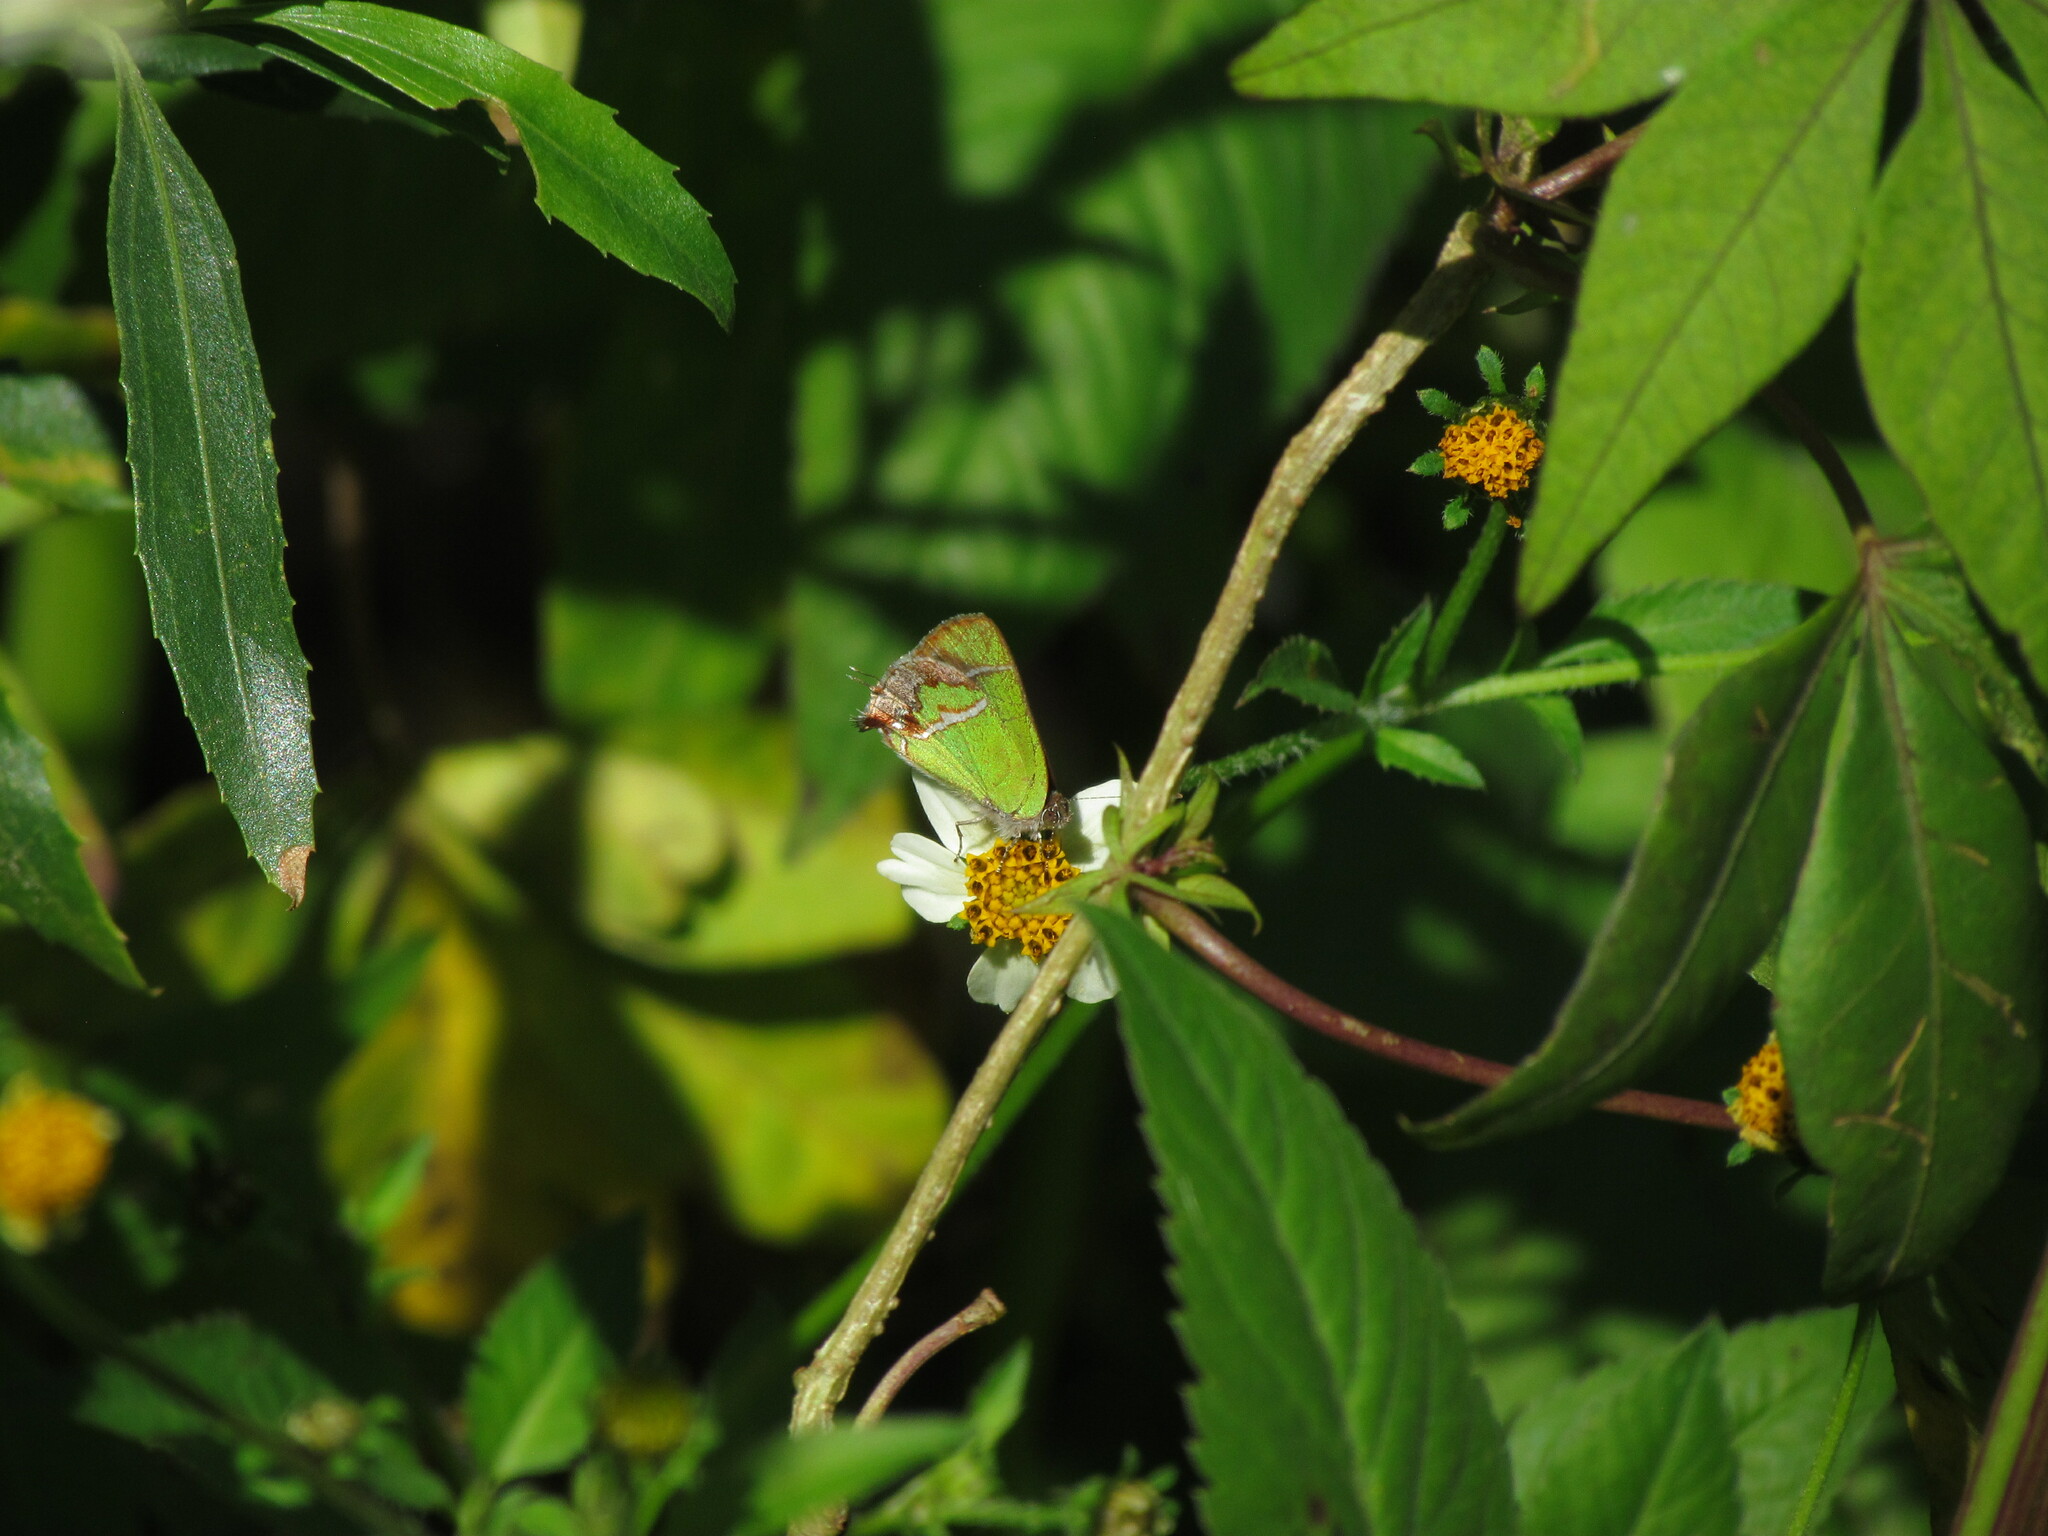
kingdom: Animalia
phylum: Arthropoda
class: Insecta
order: Lepidoptera
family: Lycaenidae
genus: Chlorostrymon
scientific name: Chlorostrymon simaethis
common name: Silver-banded hairstreak
